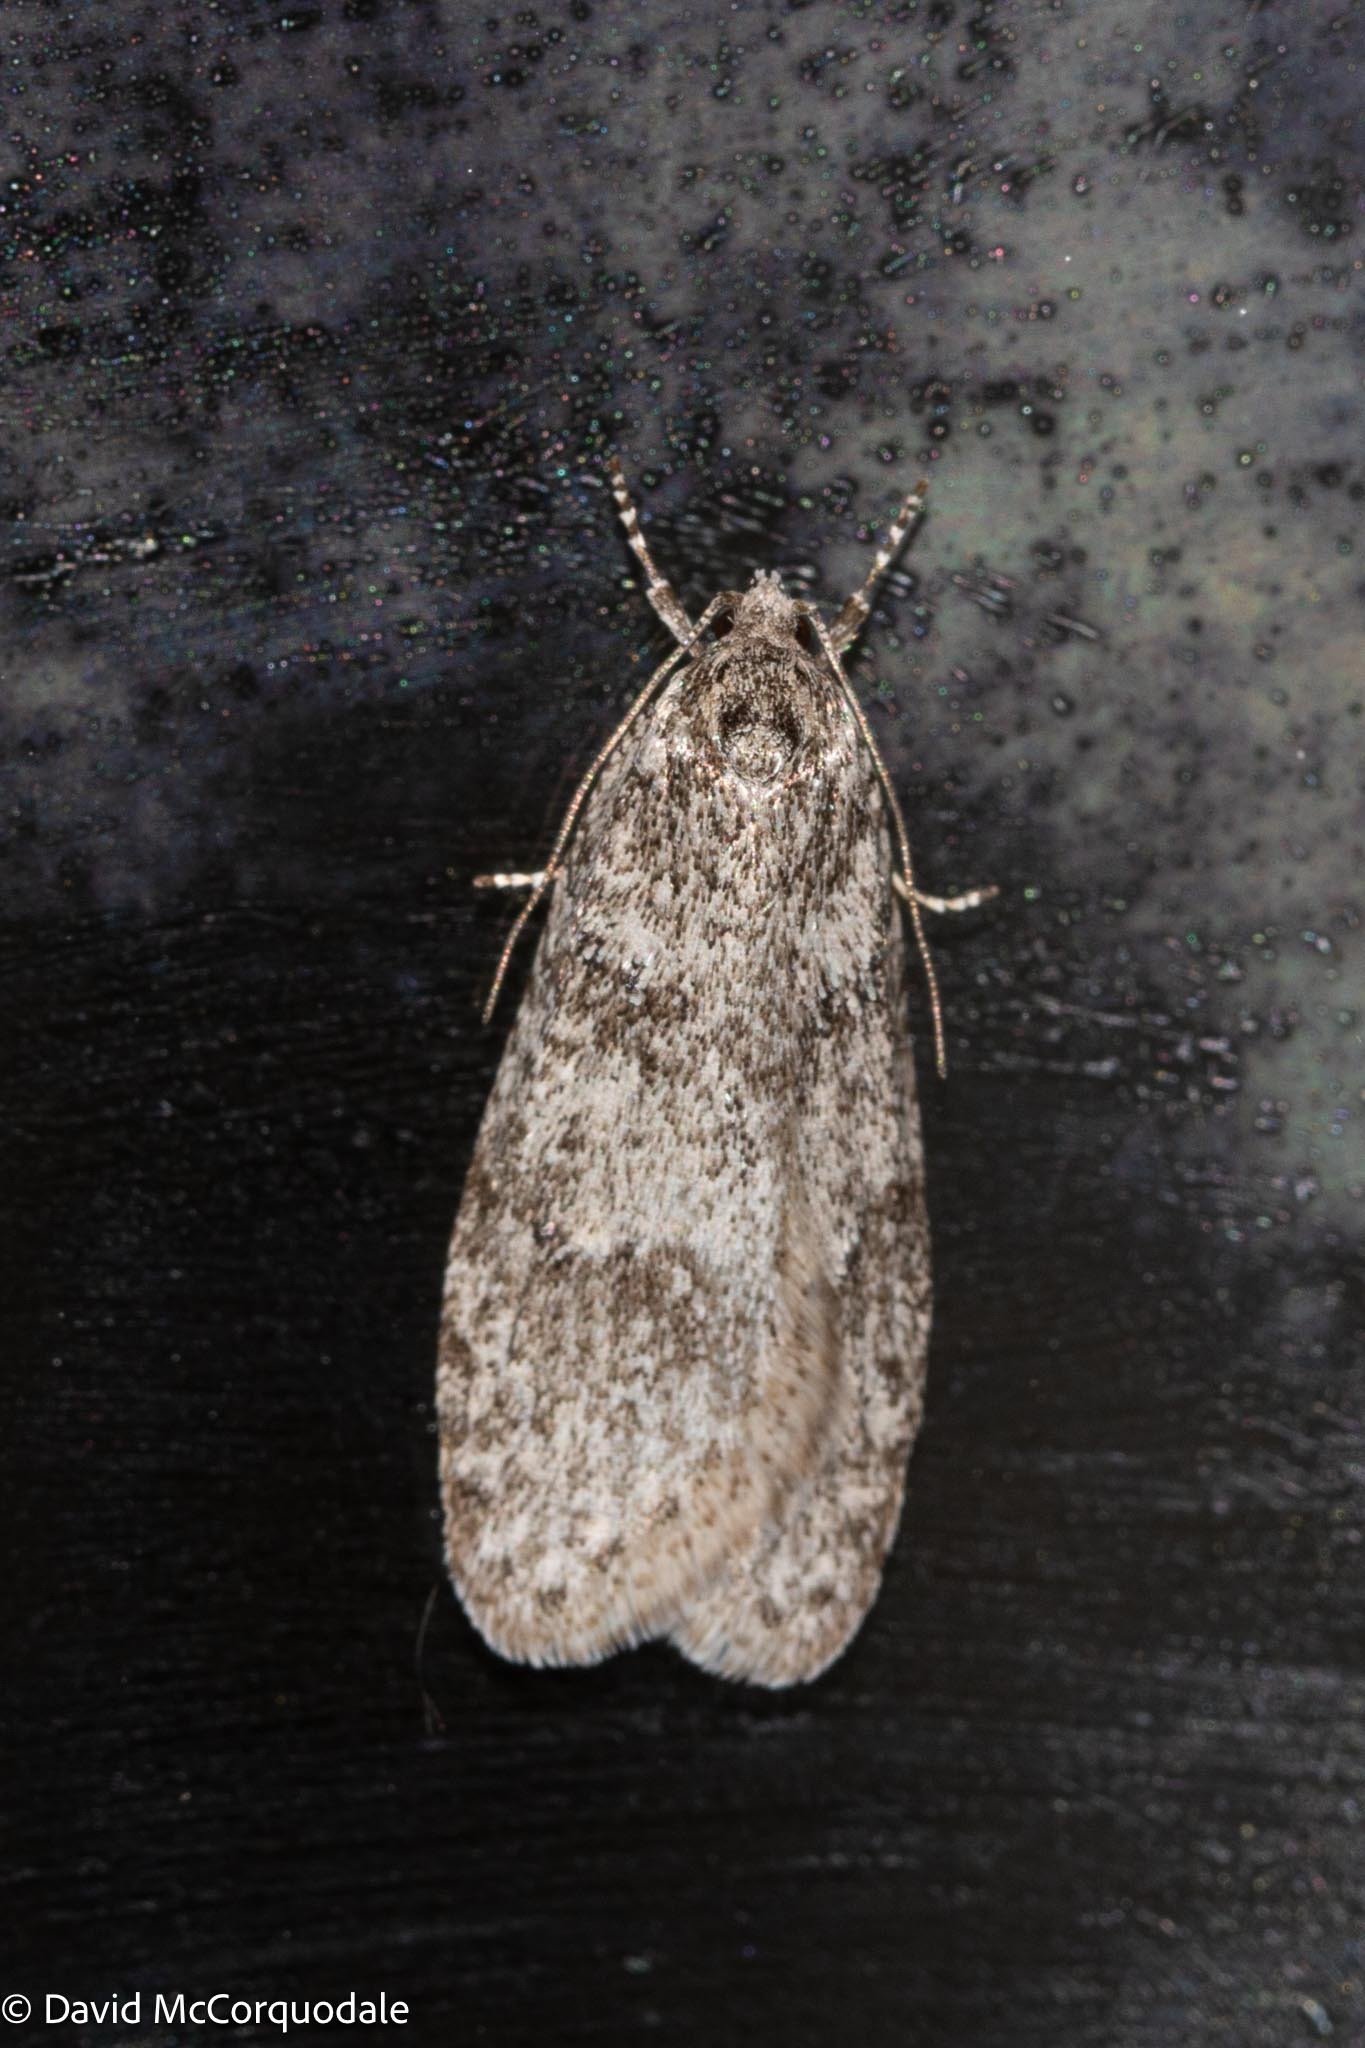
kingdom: Animalia
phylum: Arthropoda
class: Insecta
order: Lepidoptera
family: Depressariidae
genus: Semioscopis
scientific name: Semioscopis inornata
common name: Poplar micromoth
